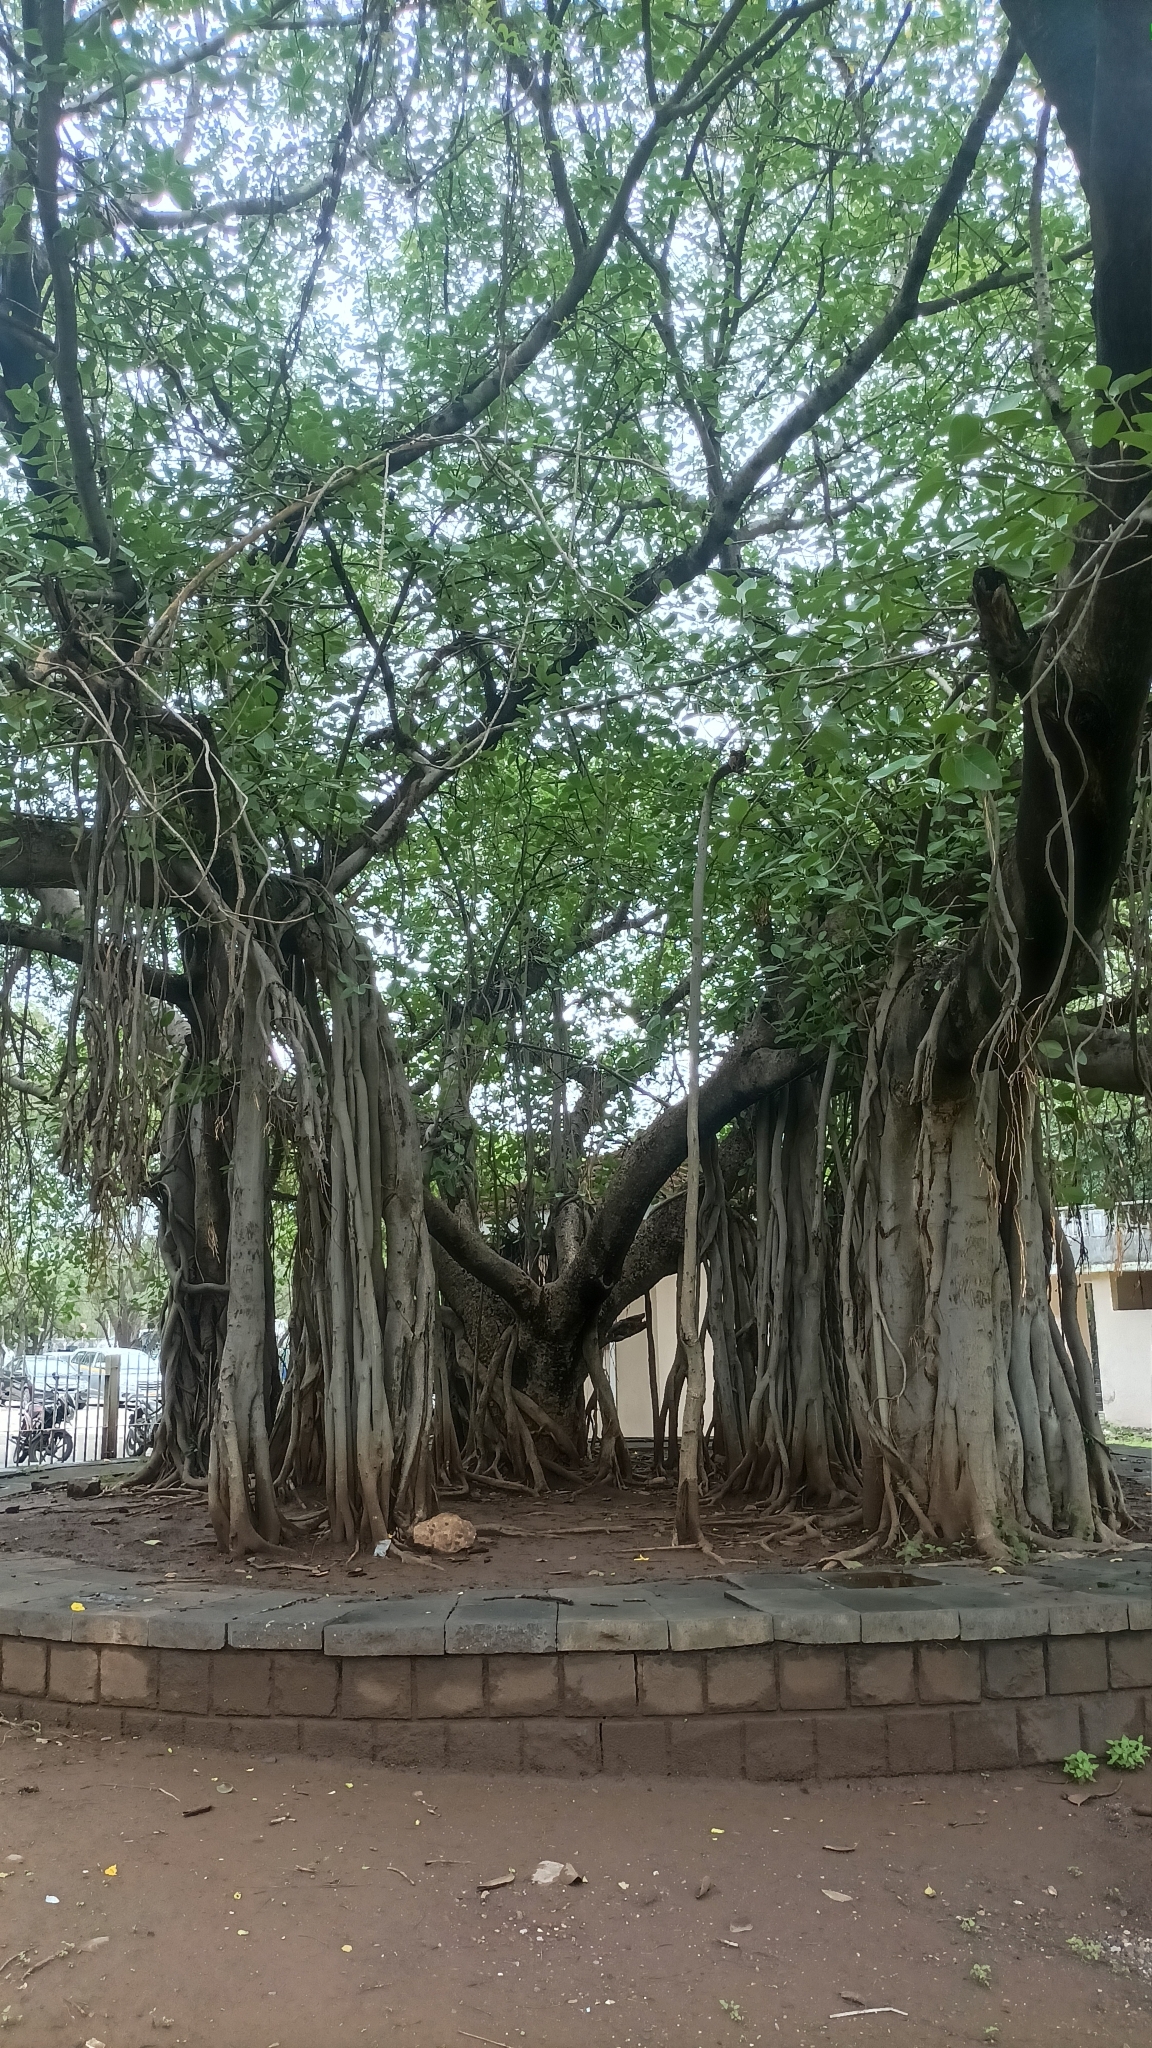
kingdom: Plantae
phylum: Tracheophyta
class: Magnoliopsida
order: Rosales
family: Moraceae
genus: Ficus
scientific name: Ficus benghalensis
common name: Indian banyan
